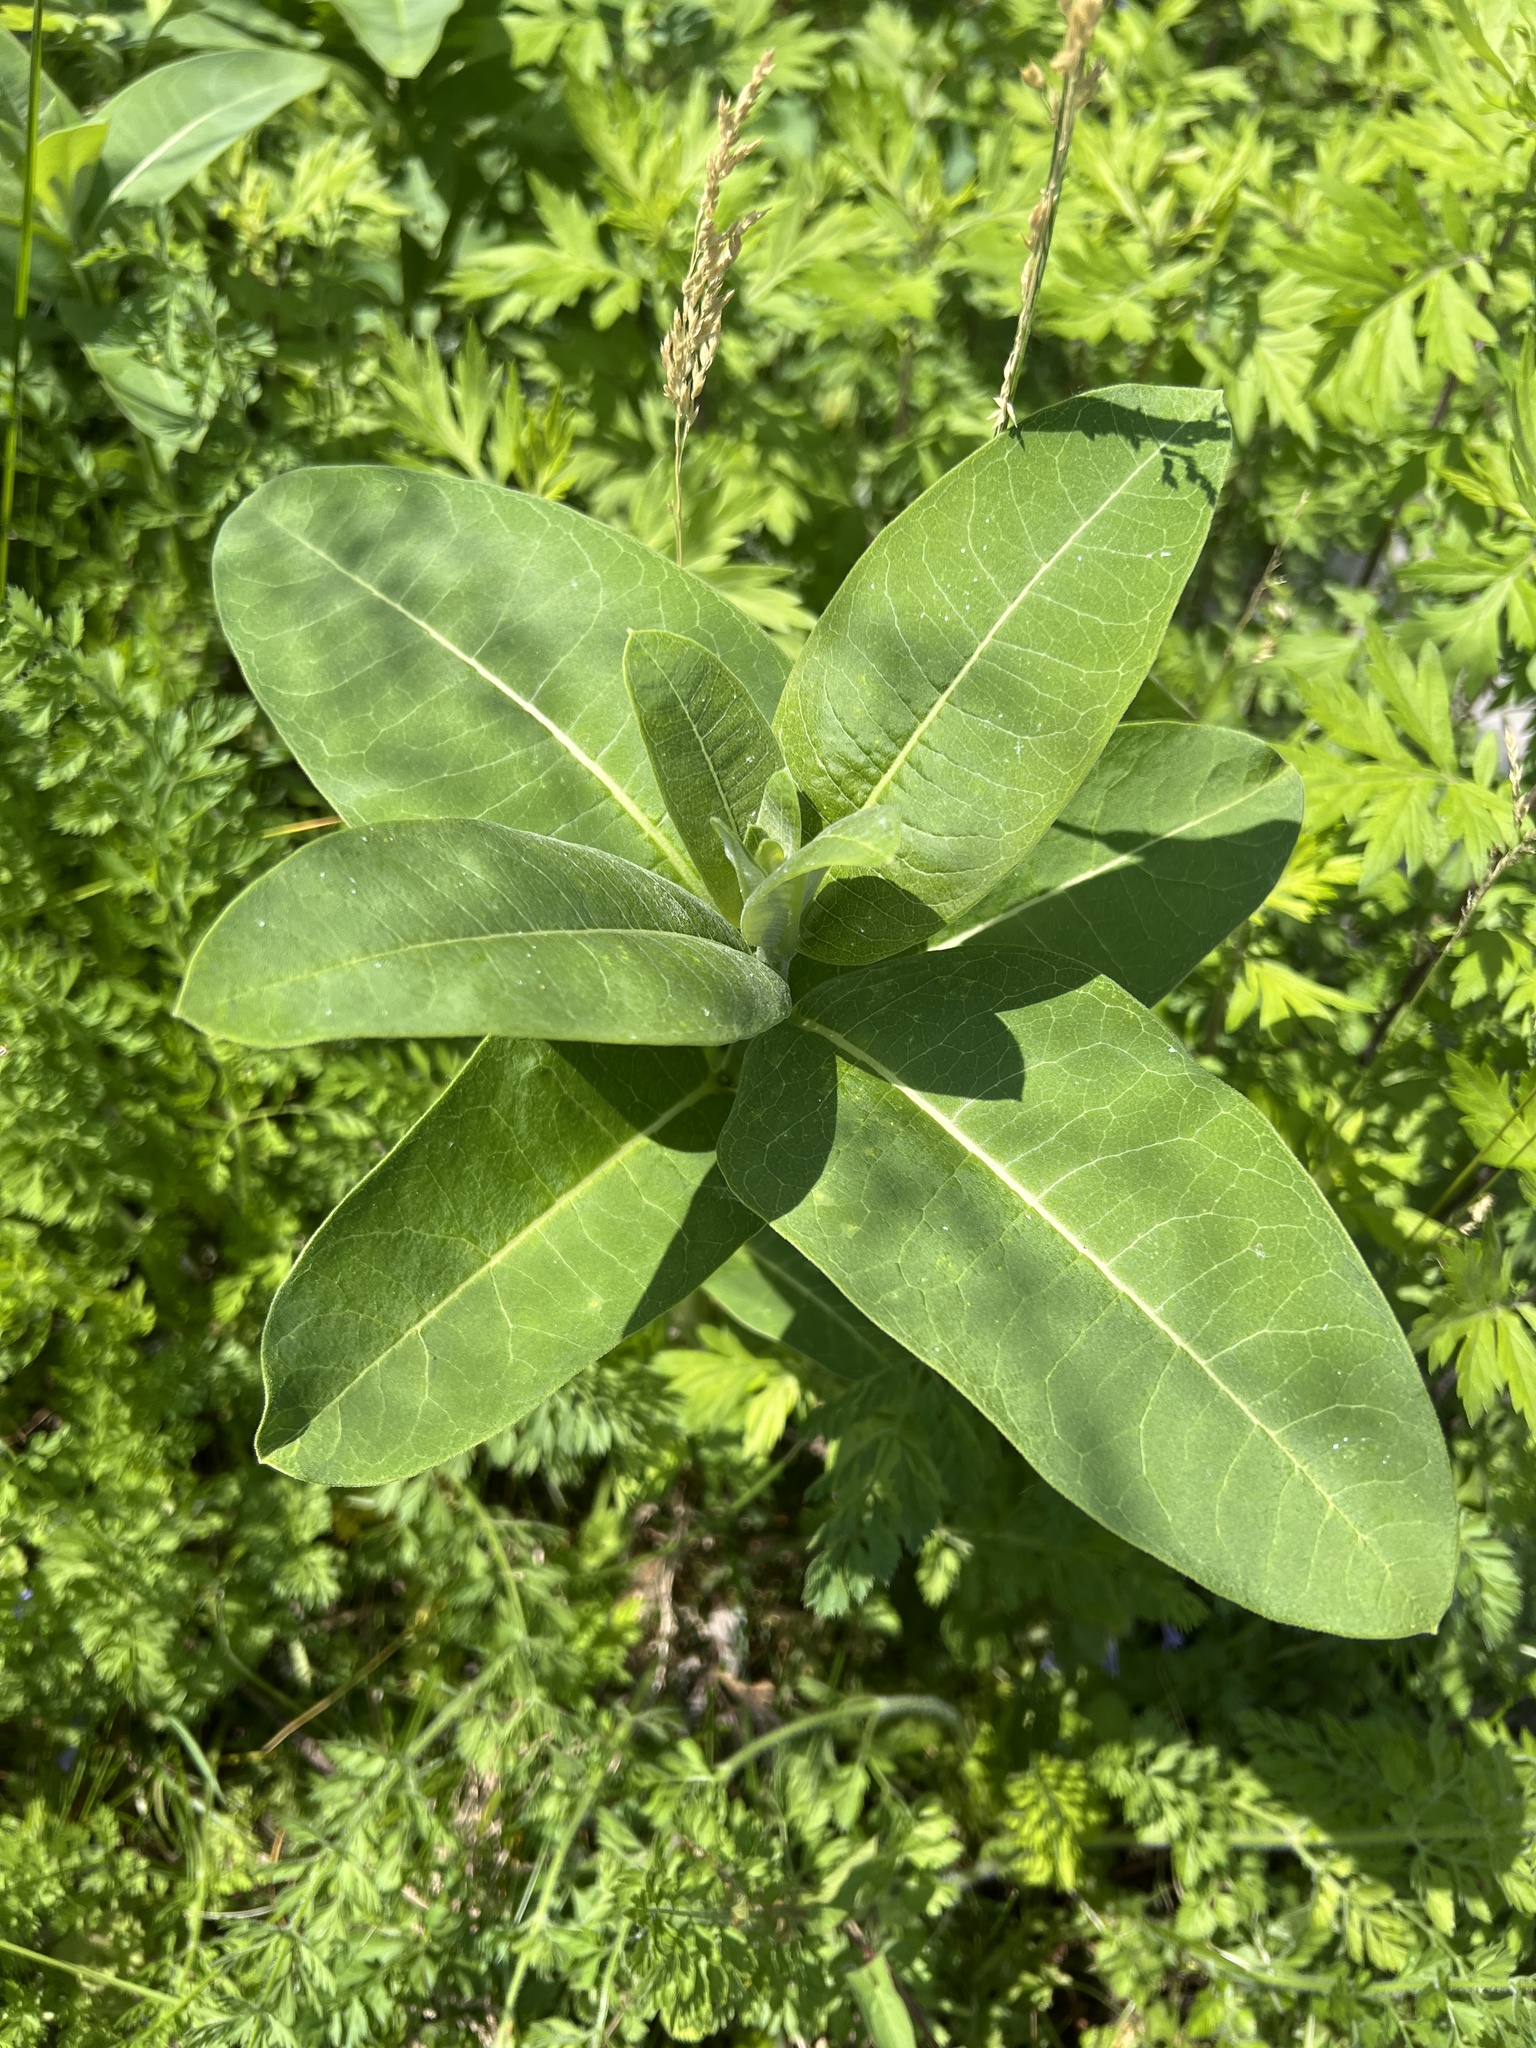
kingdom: Plantae
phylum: Tracheophyta
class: Magnoliopsida
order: Gentianales
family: Apocynaceae
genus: Asclepias
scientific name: Asclepias syriaca
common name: Common milkweed
